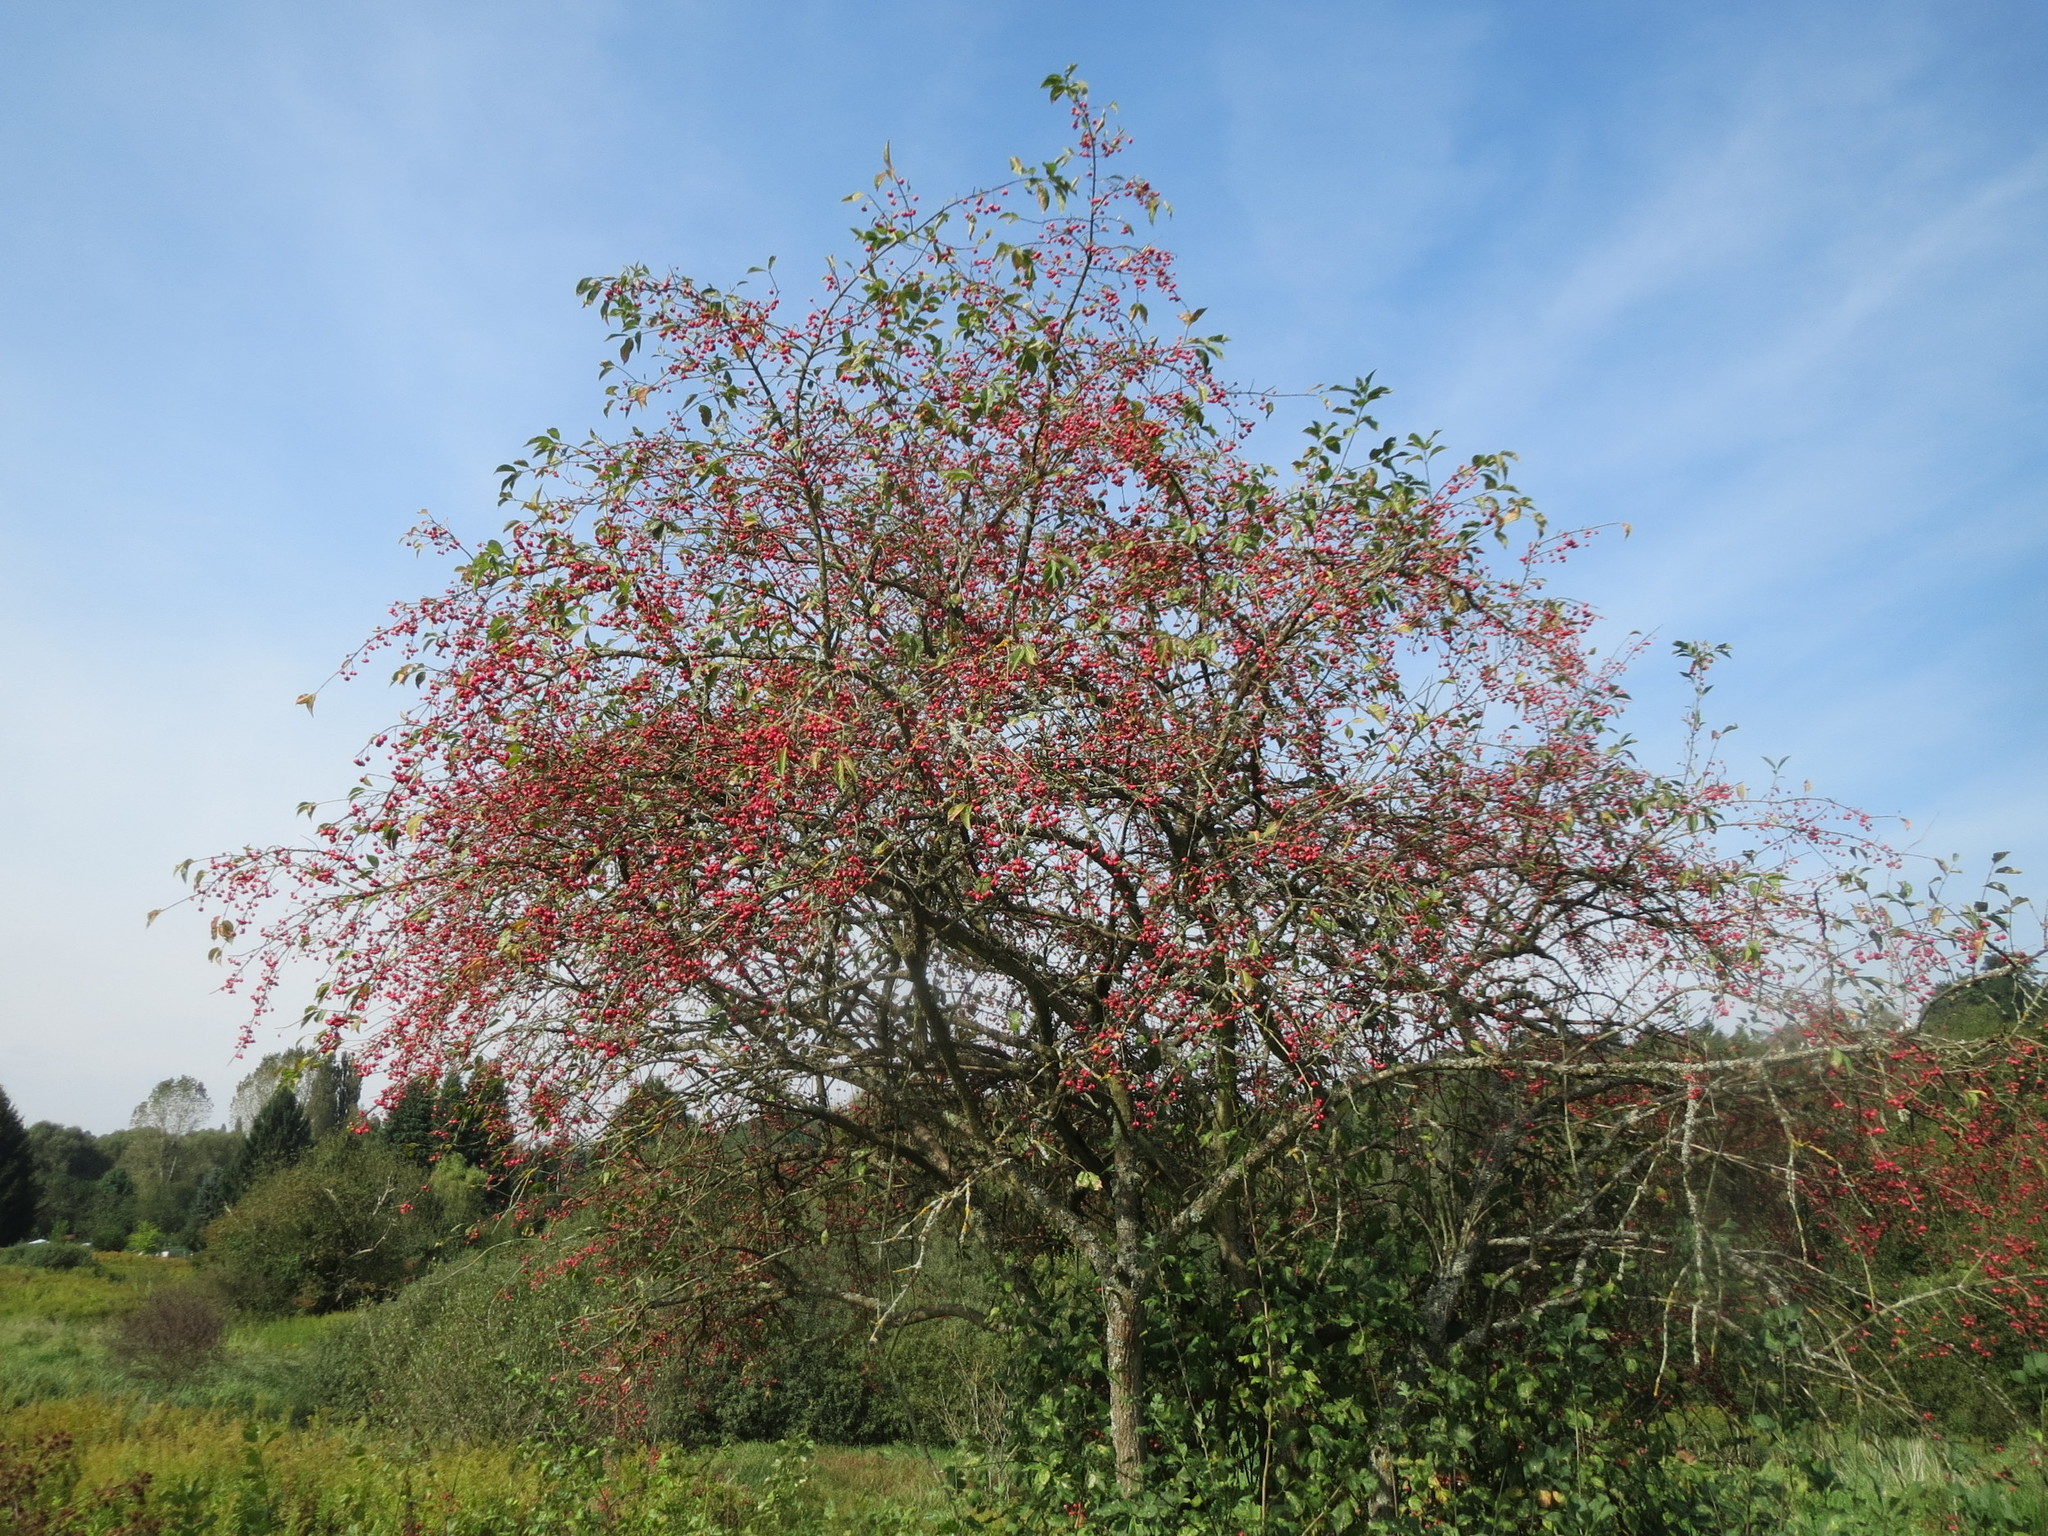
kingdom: Plantae
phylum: Tracheophyta
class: Magnoliopsida
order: Celastrales
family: Celastraceae
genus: Euonymus
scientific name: Euonymus europaeus
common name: Spindle
